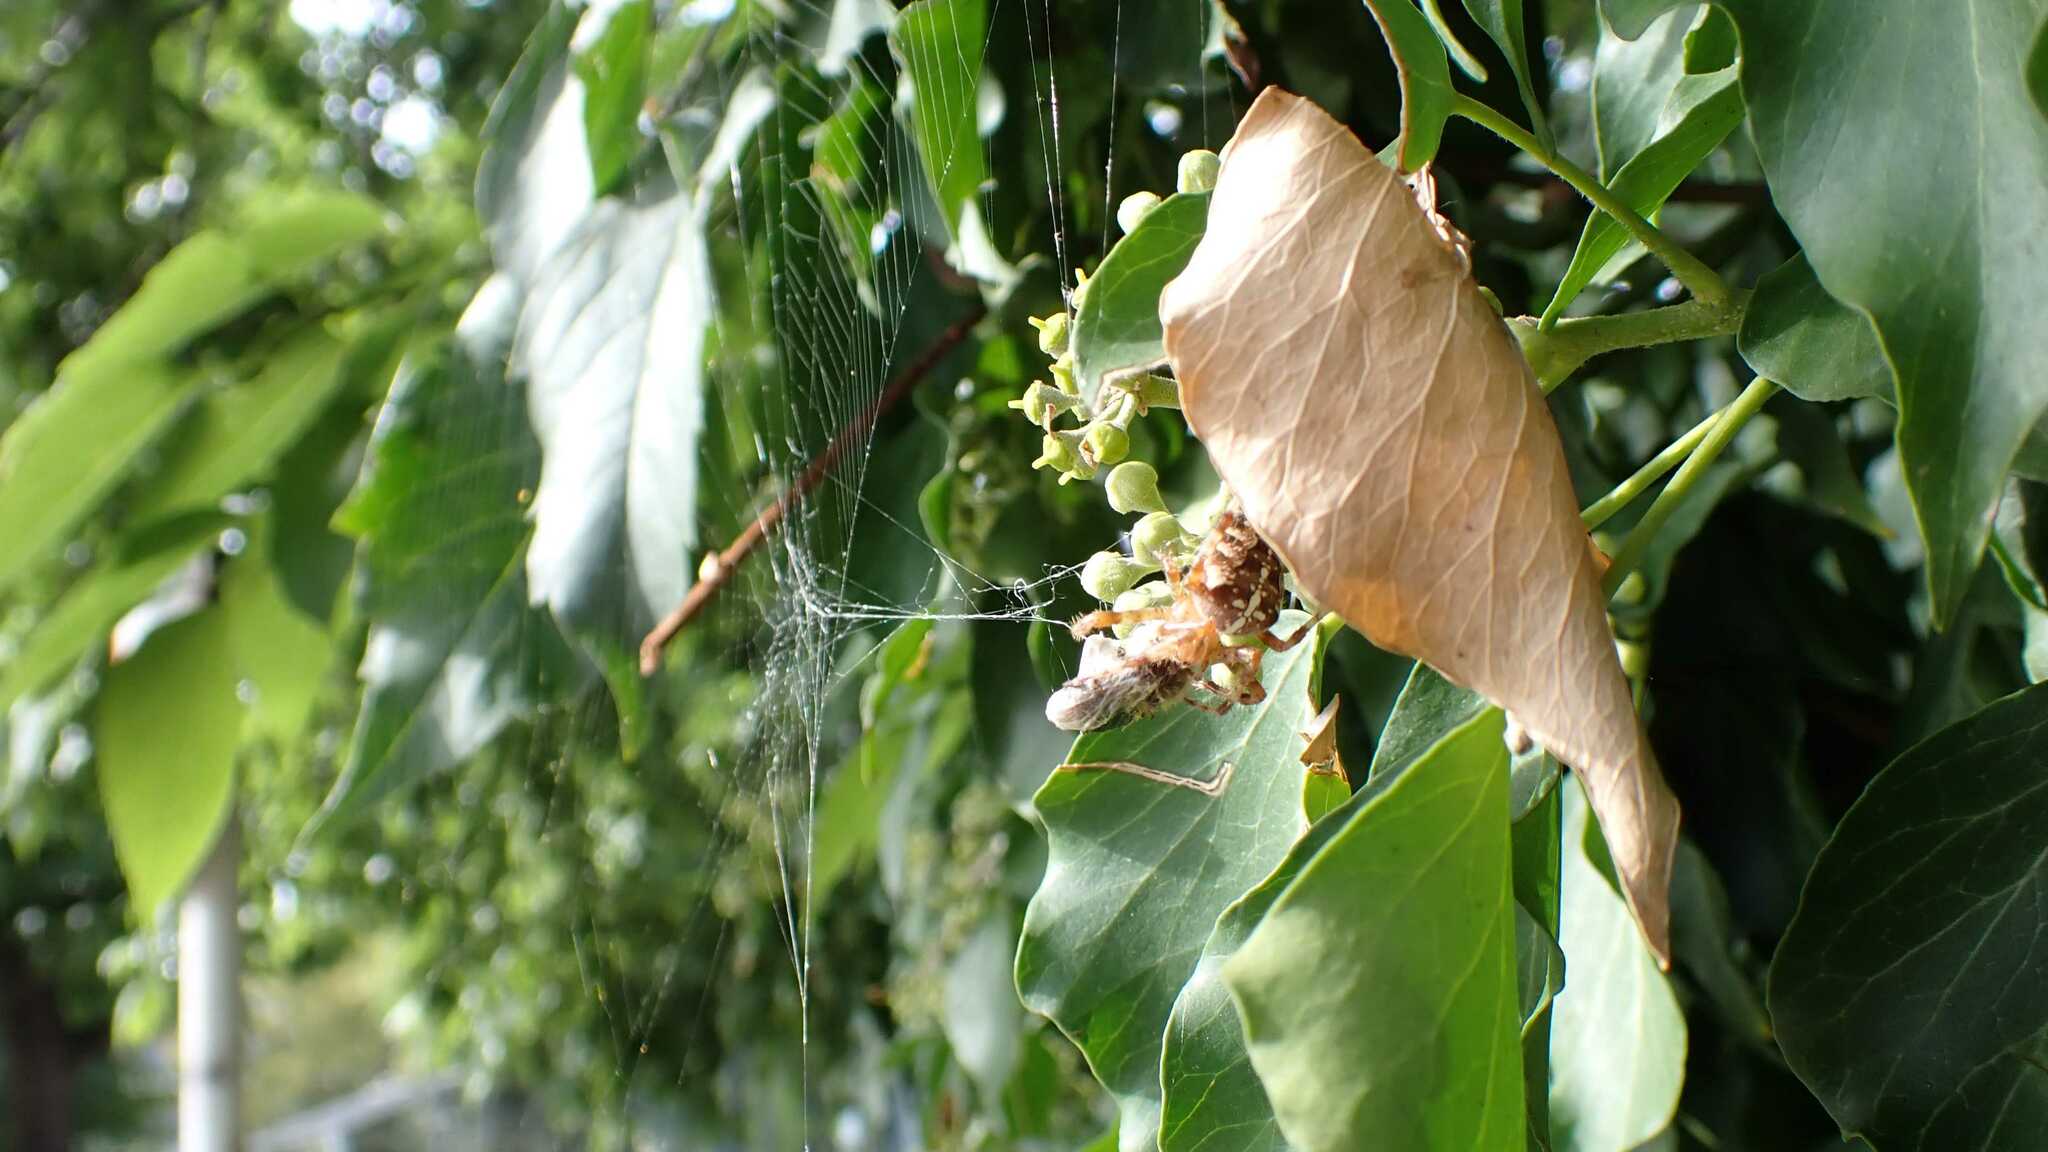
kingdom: Animalia
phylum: Arthropoda
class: Arachnida
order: Araneae
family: Araneidae
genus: Araneus
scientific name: Araneus diadematus
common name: Cross orbweaver
